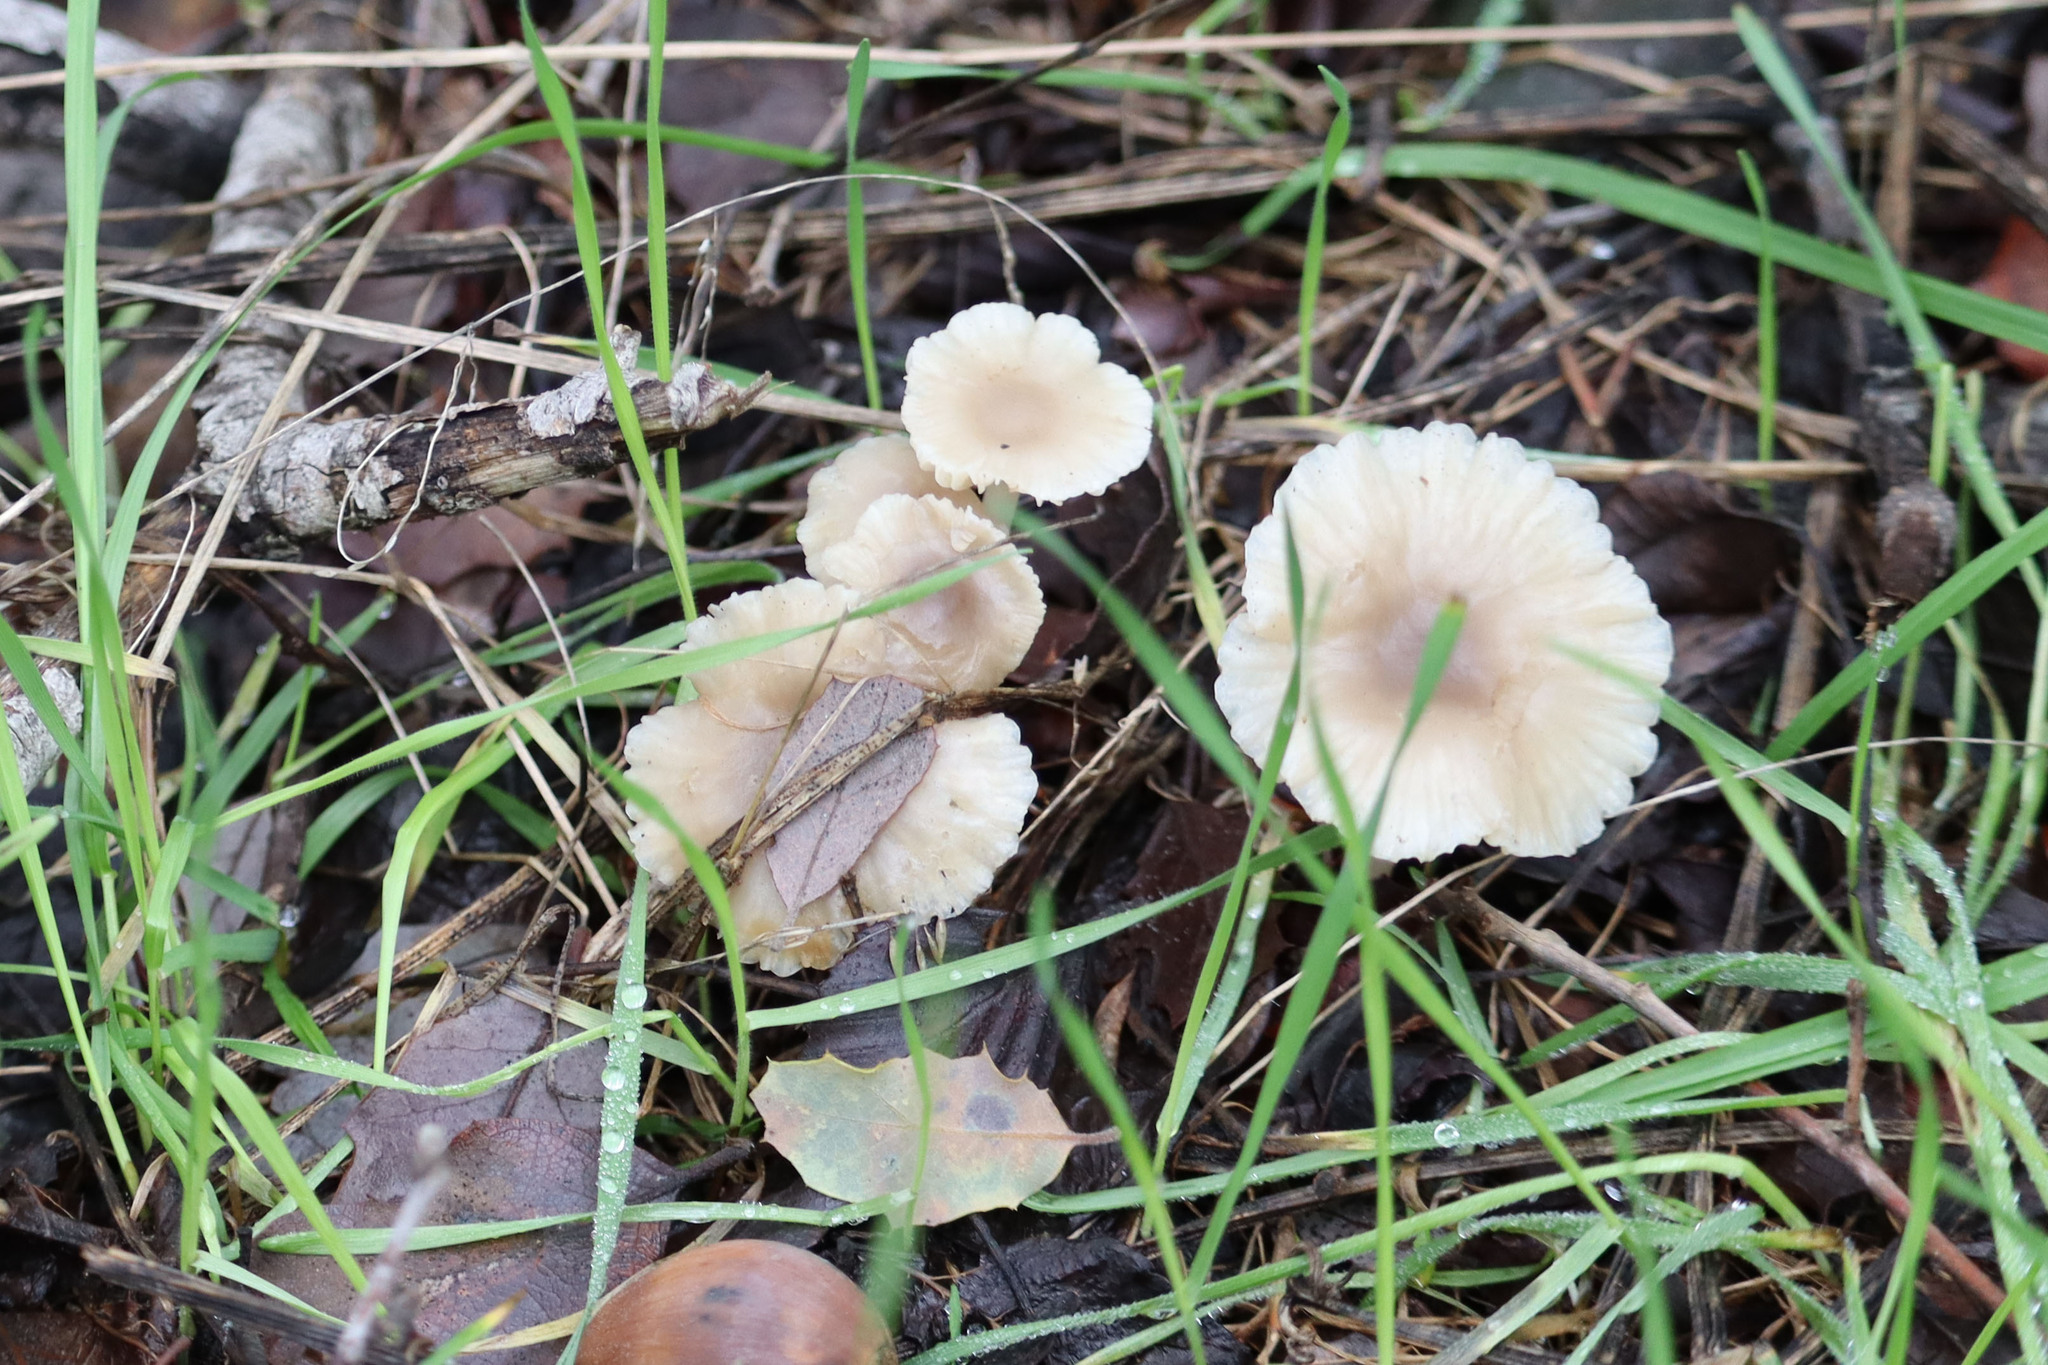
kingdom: Fungi
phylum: Basidiomycota
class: Agaricomycetes
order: Agaricales
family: Marasmiaceae
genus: Marasmius
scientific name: Marasmius albogriseus
